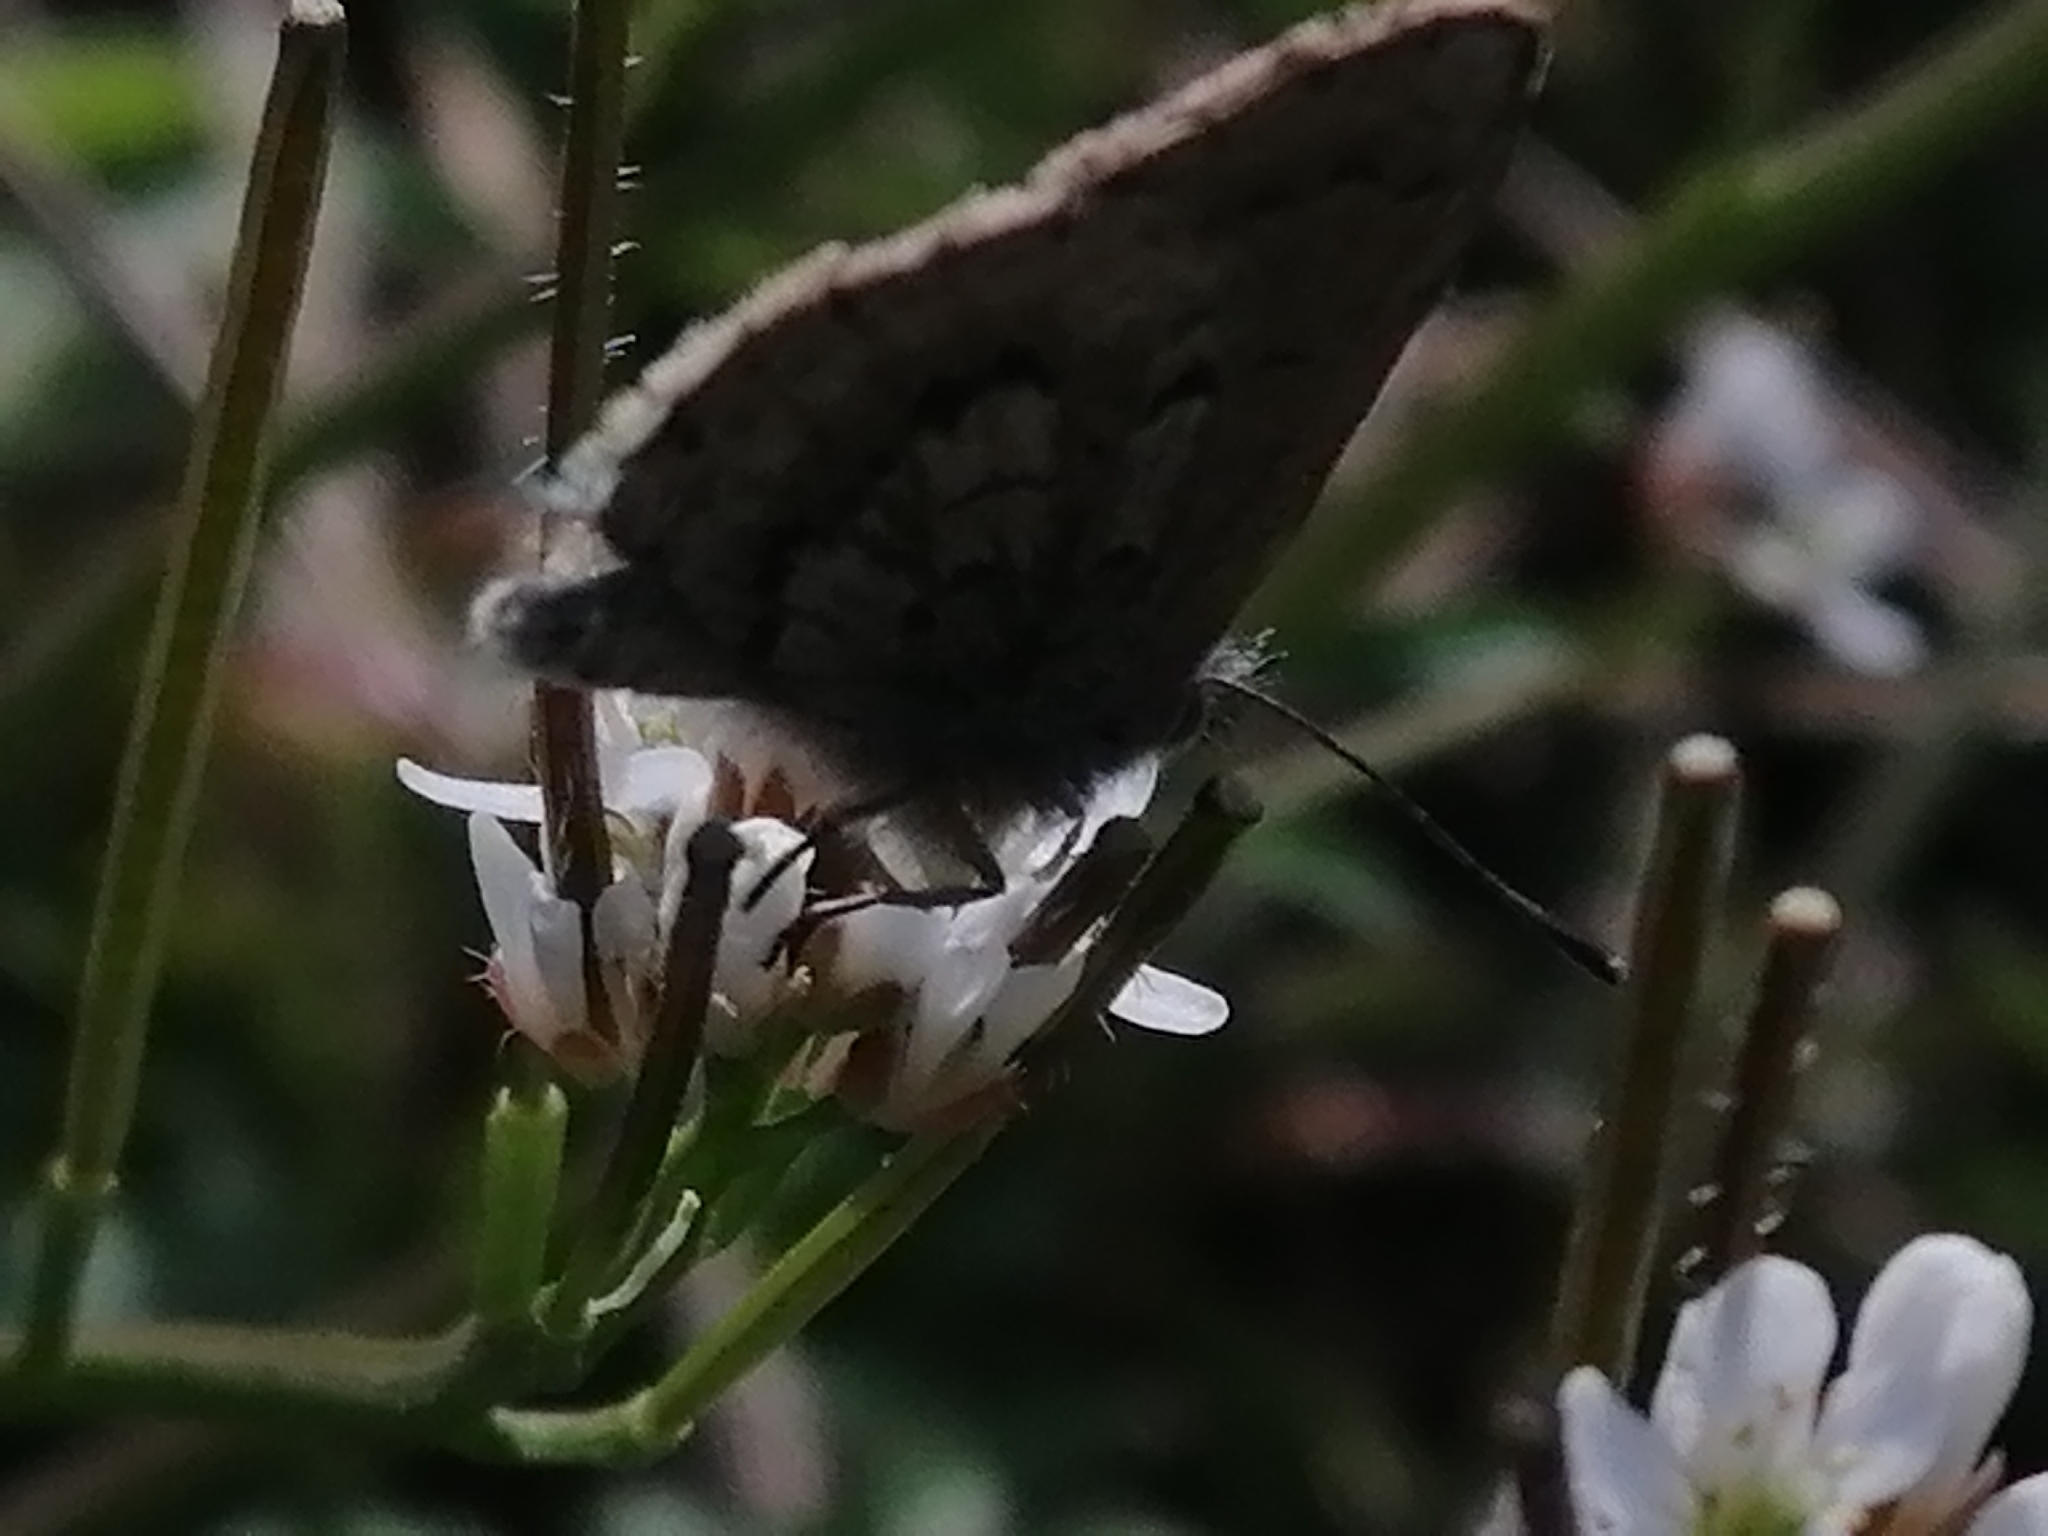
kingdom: Animalia
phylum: Arthropoda
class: Insecta
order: Lepidoptera
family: Lycaenidae
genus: Zizina
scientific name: Zizina oxleyi
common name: Southern blue
